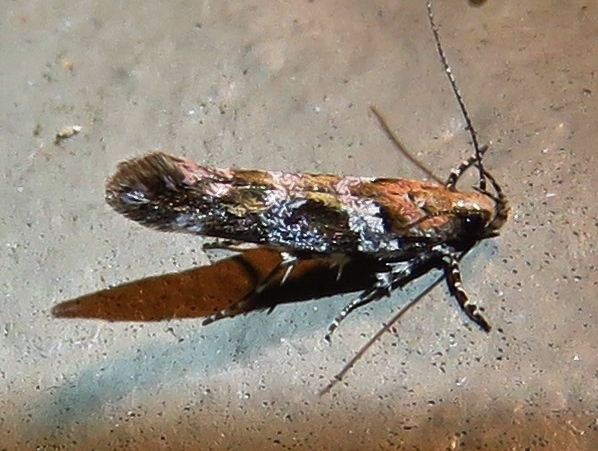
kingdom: Animalia
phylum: Arthropoda
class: Insecta
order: Lepidoptera
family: Gelechiidae
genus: Aristotelia
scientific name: Aristotelia roseosuffusella
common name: Pink-washed aristotelia moth
